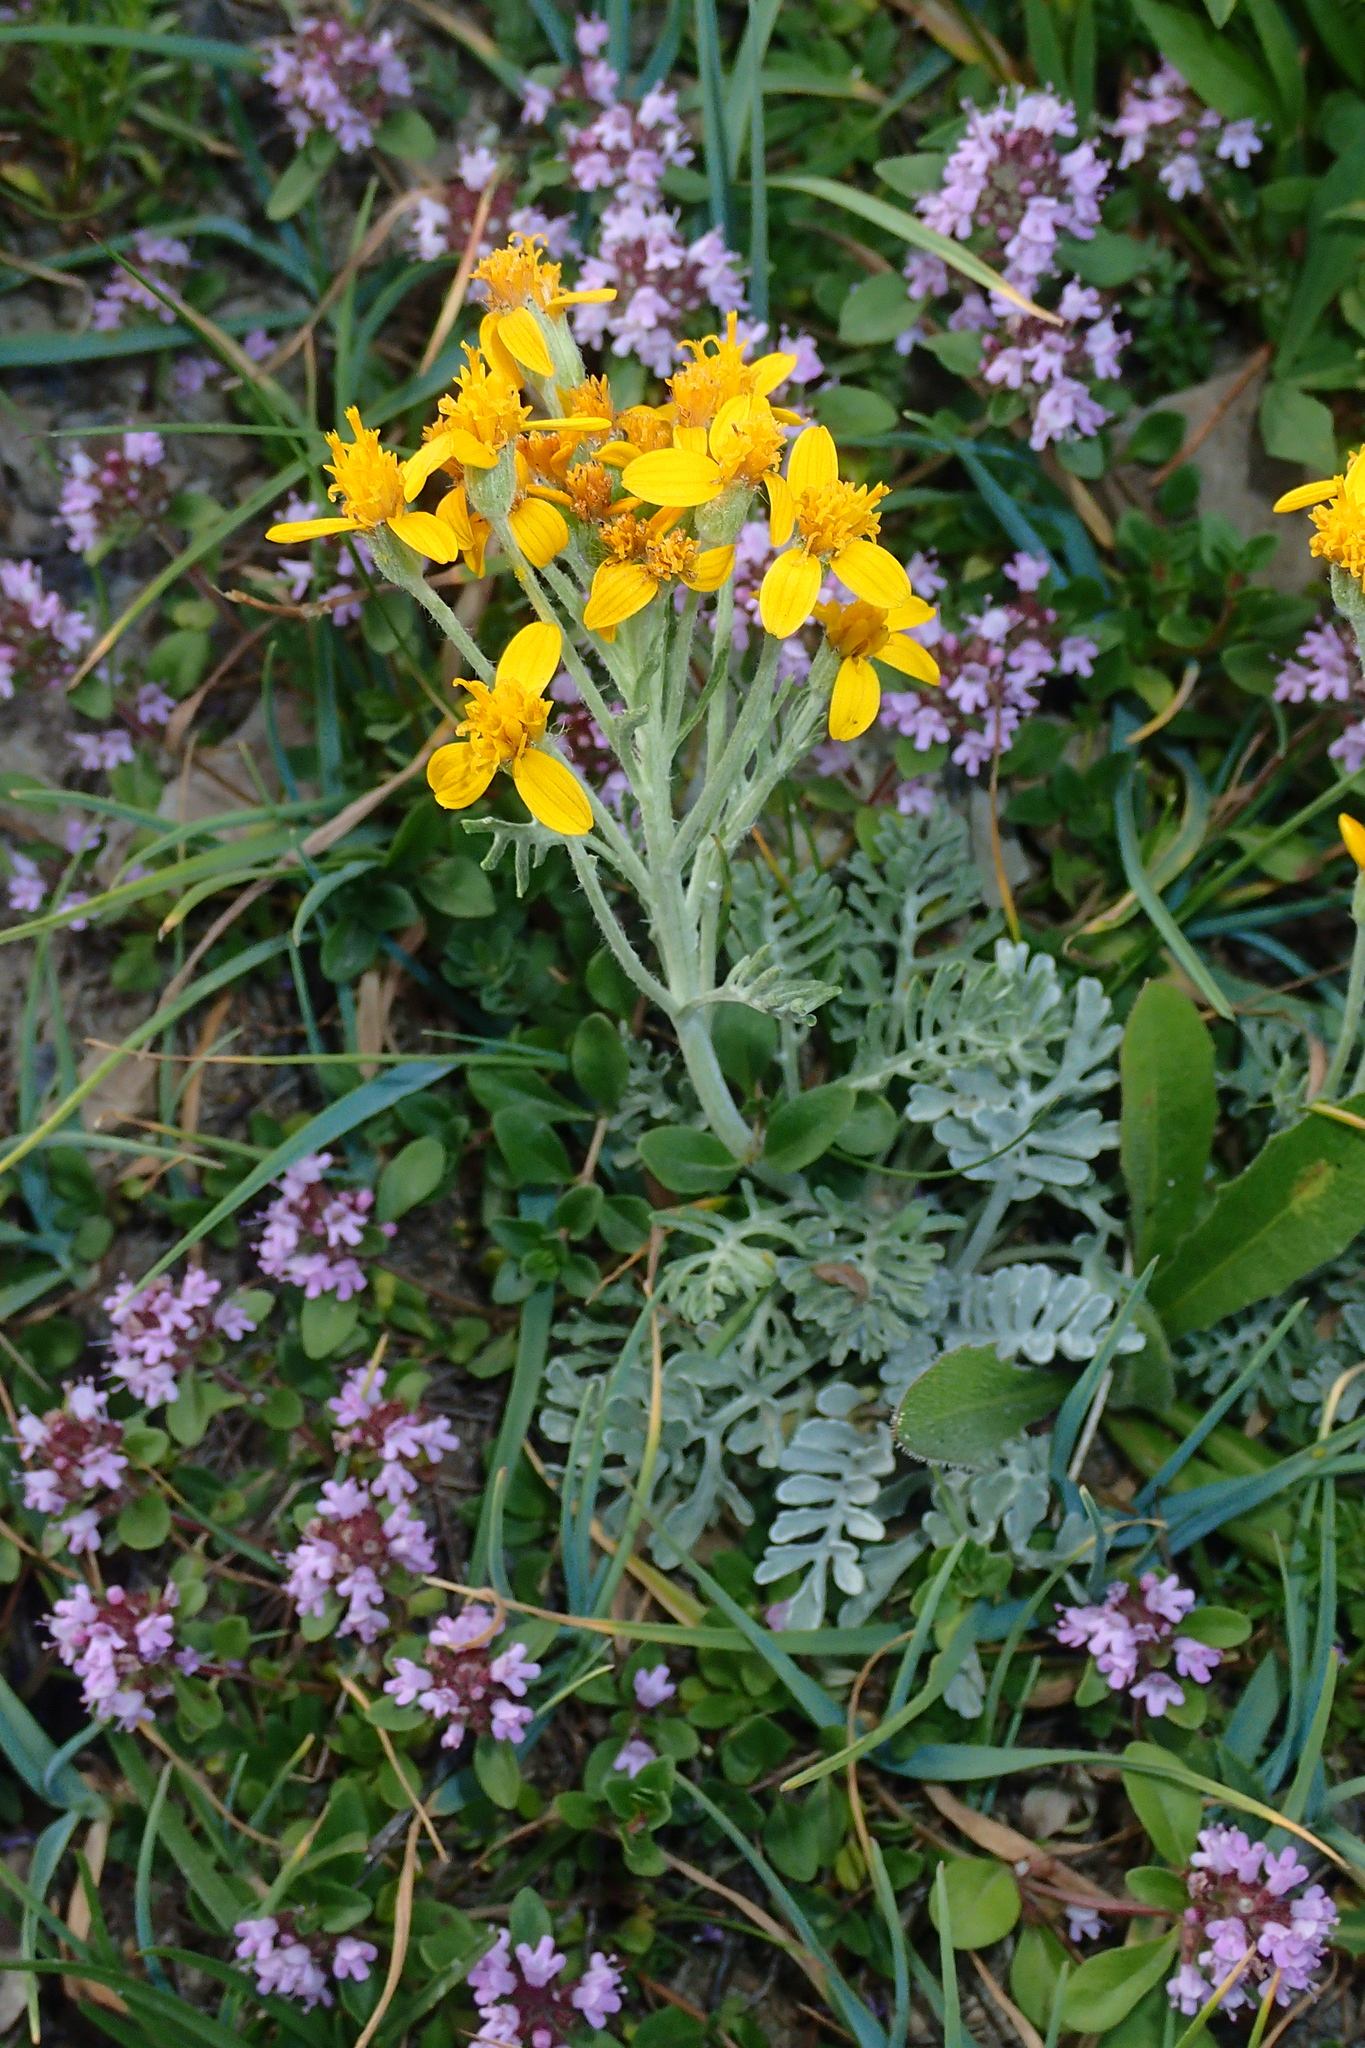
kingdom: Plantae
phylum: Tracheophyta
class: Magnoliopsida
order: Asterales
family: Asteraceae
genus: Jacobaea
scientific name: Jacobaea incana
